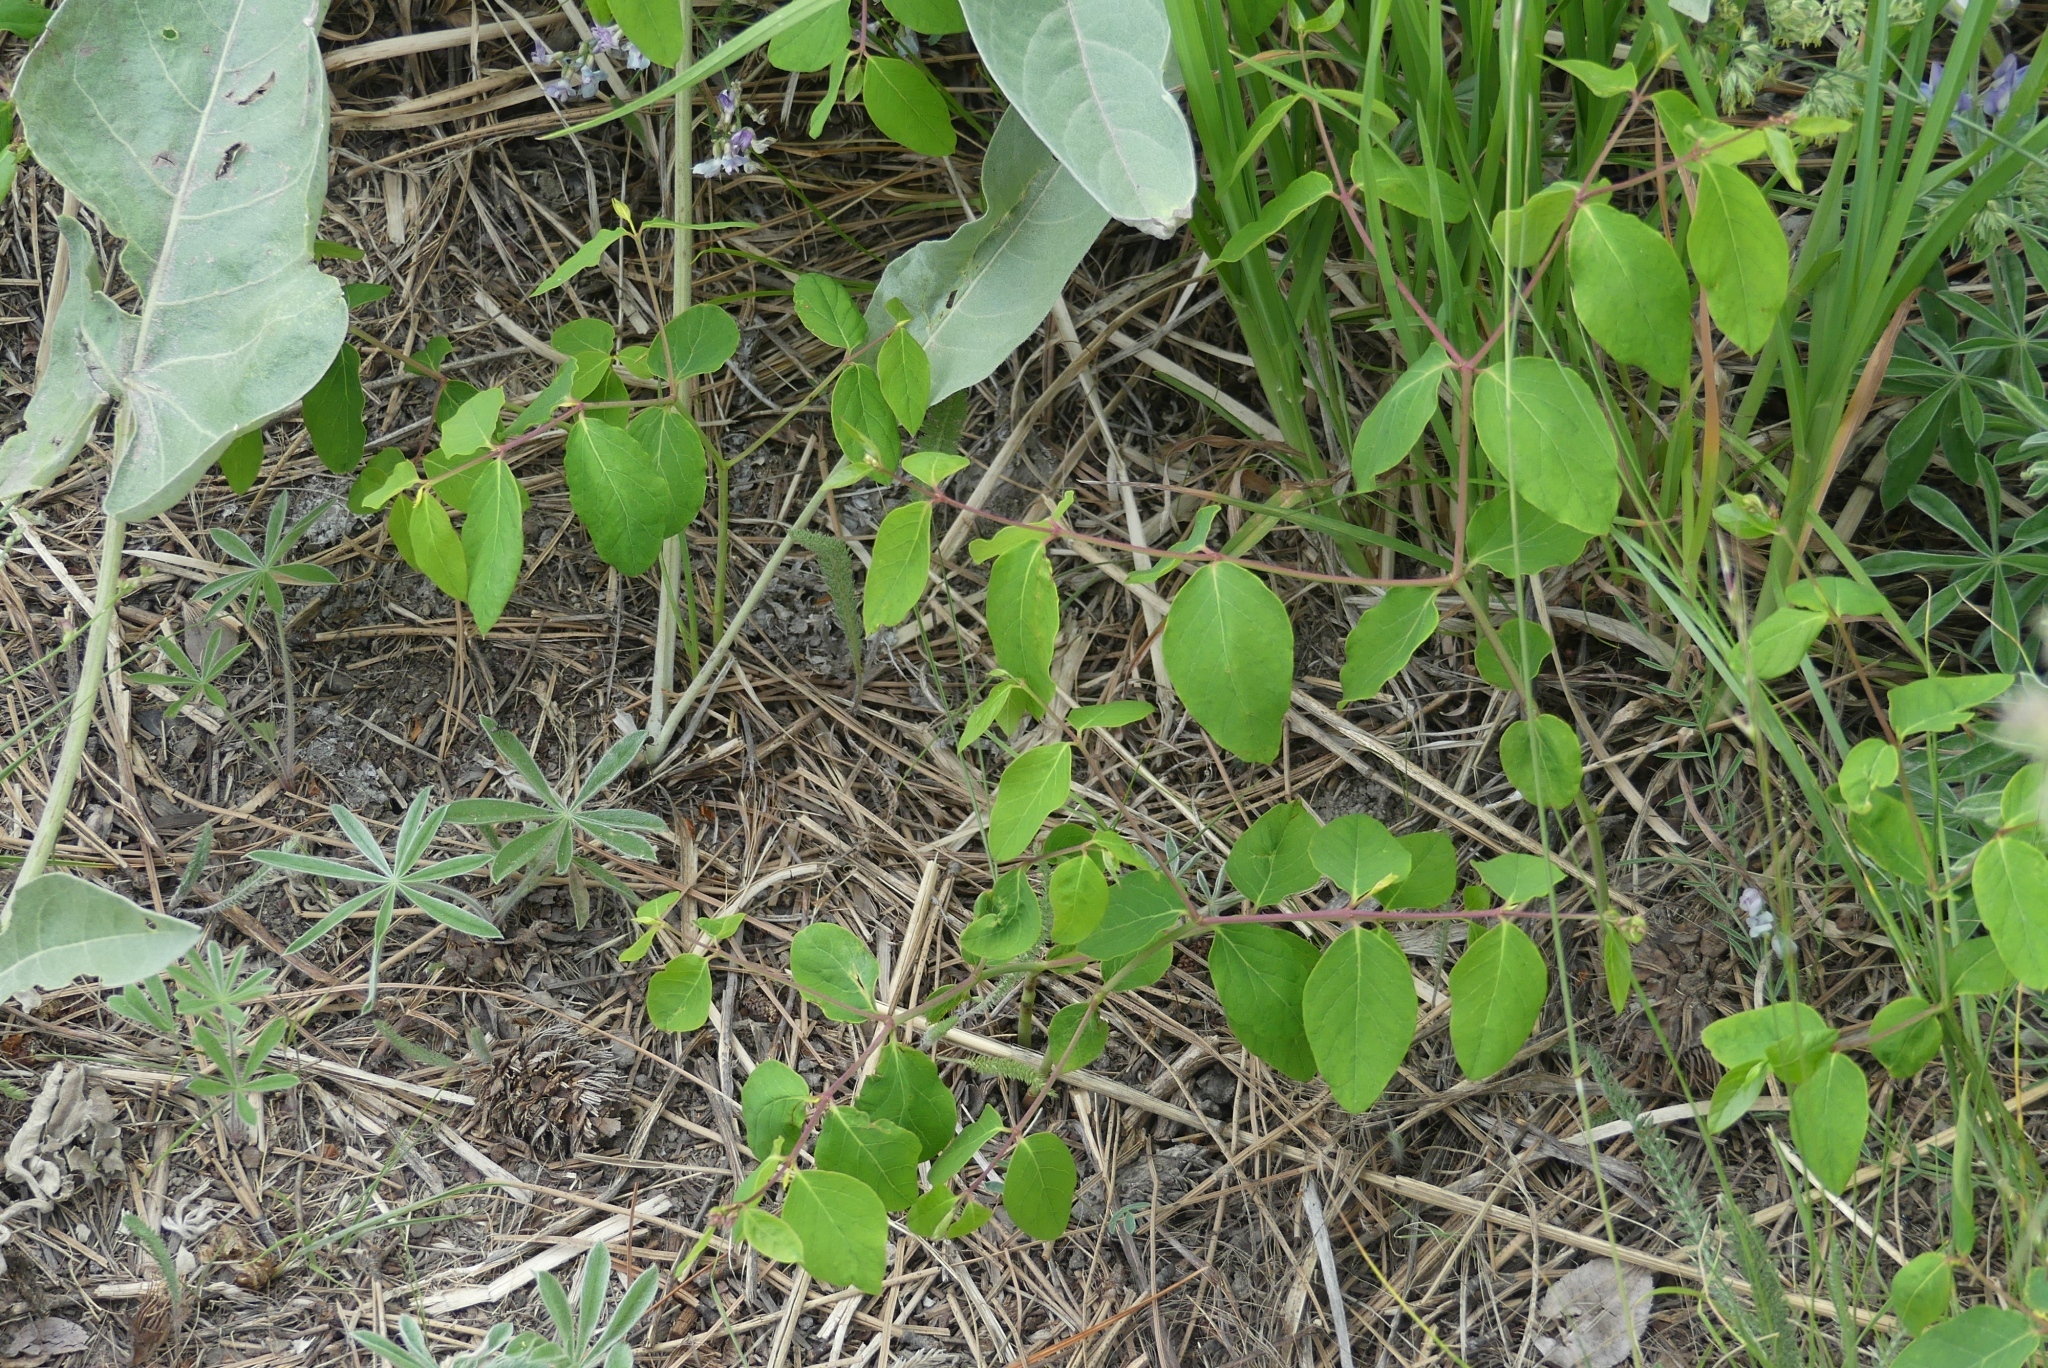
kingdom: Plantae
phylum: Tracheophyta
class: Magnoliopsida
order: Gentianales
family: Apocynaceae
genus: Apocynum
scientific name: Apocynum androsaemifolium
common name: Spreading dogbane
